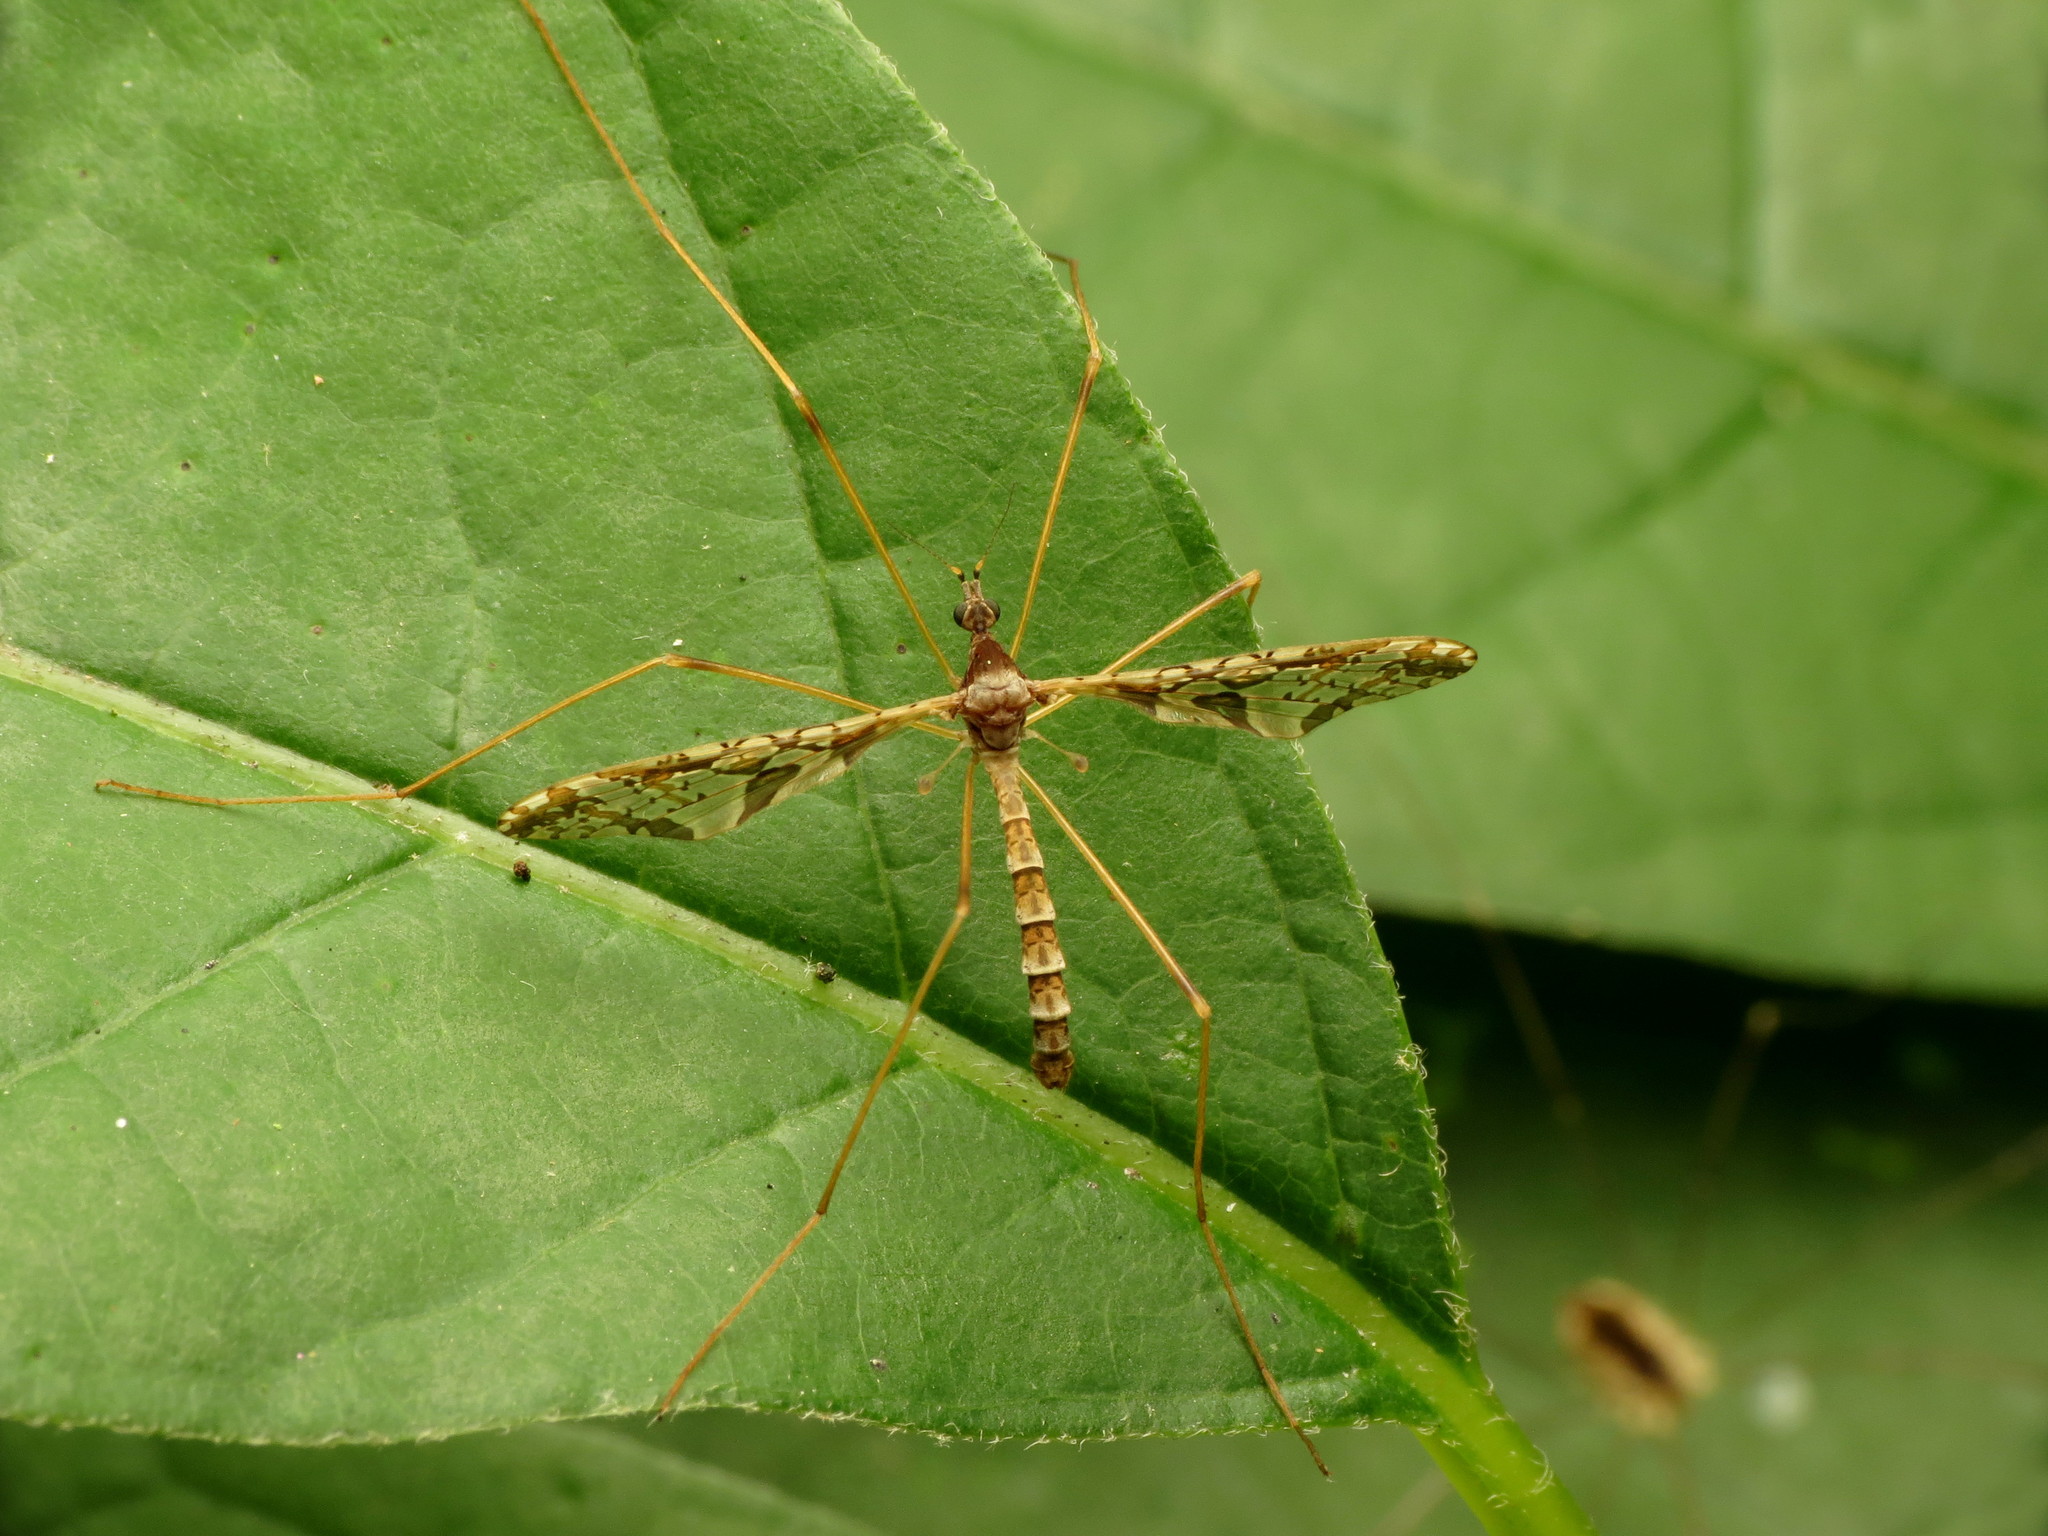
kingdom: Animalia
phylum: Arthropoda
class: Insecta
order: Diptera
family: Limoniidae
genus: Epiphragma
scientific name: Epiphragma solatrix
